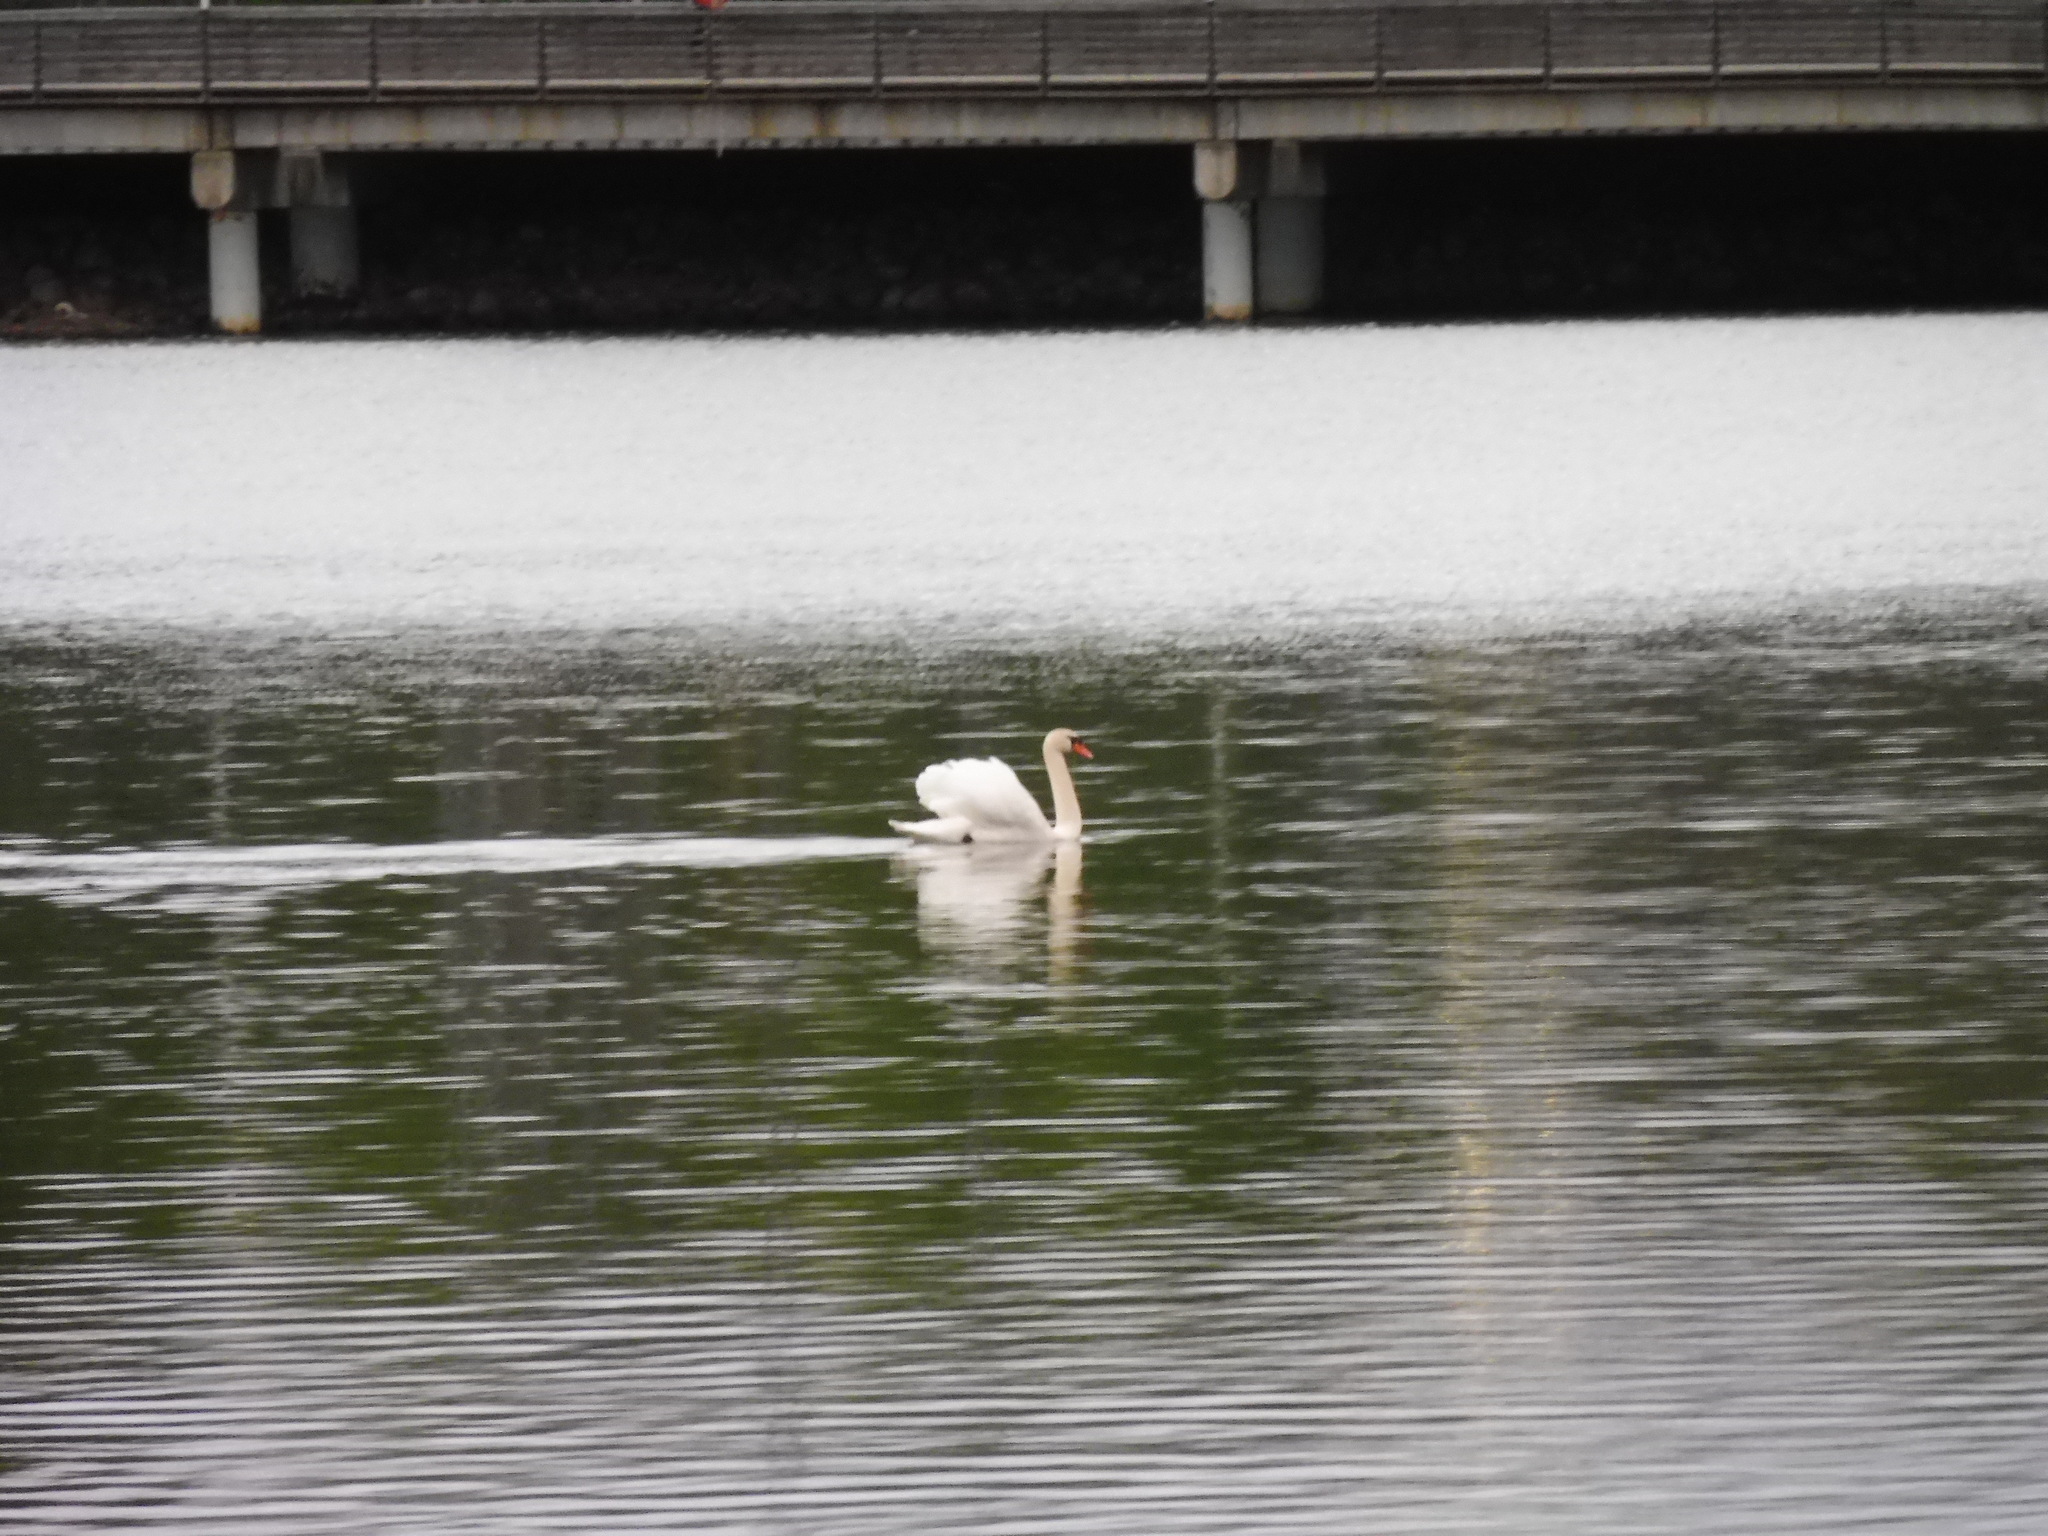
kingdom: Animalia
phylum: Chordata
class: Aves
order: Anseriformes
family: Anatidae
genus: Cygnus
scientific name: Cygnus olor
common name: Mute swan
